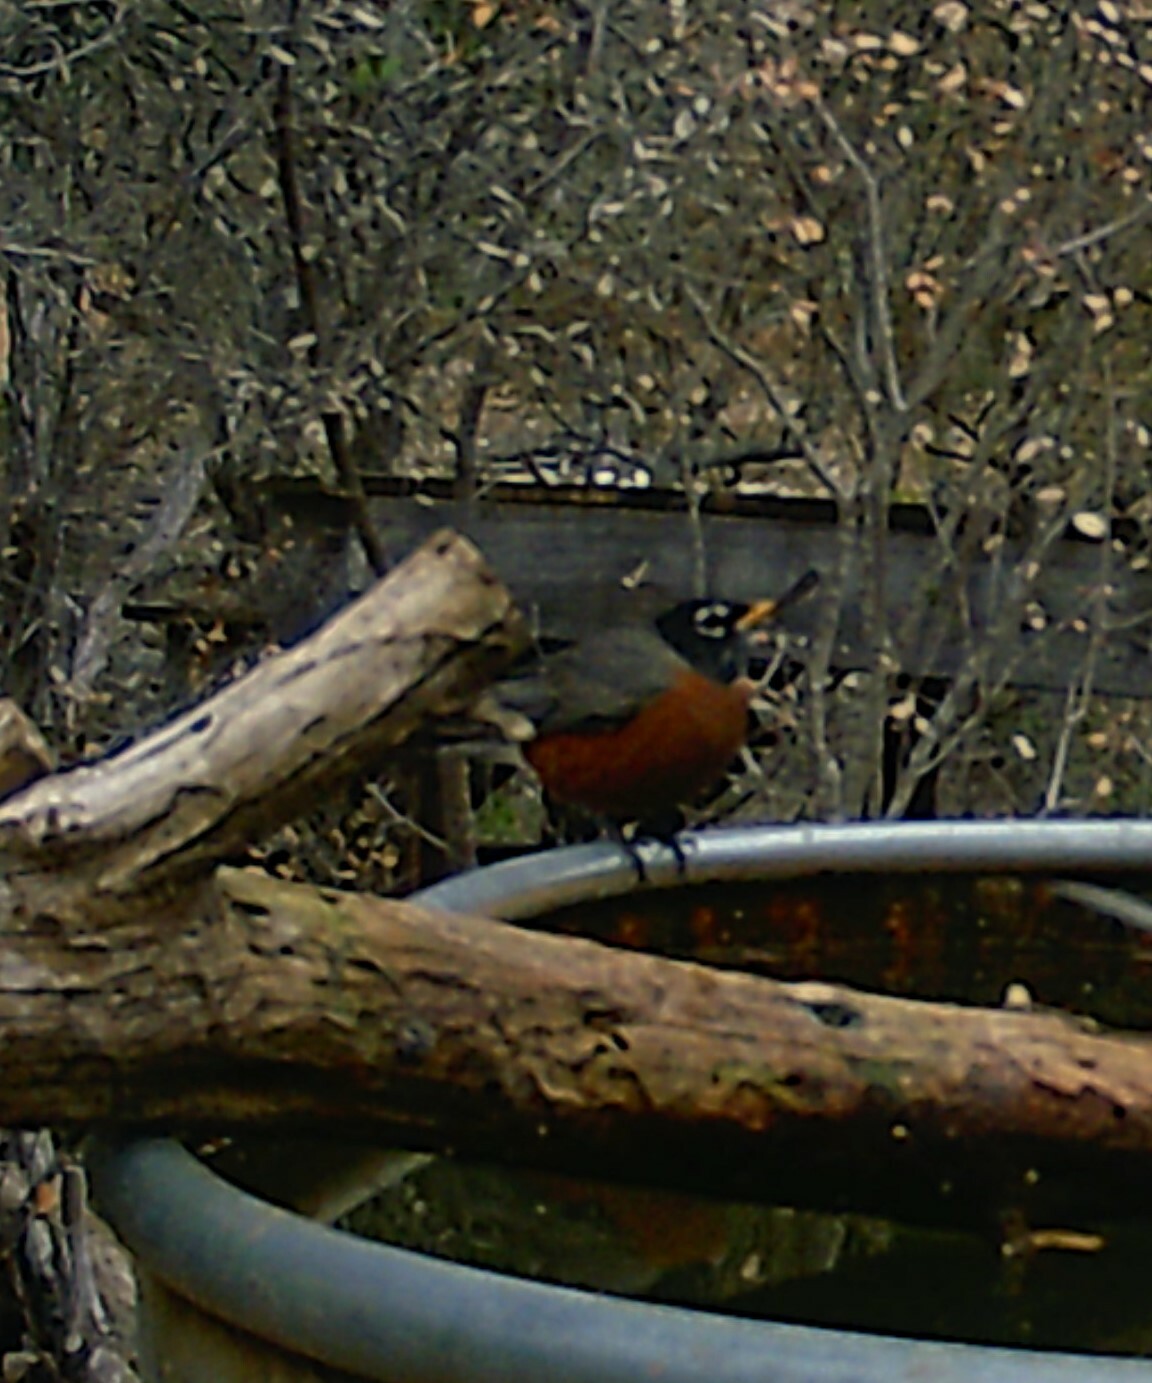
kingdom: Animalia
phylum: Chordata
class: Aves
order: Passeriformes
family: Turdidae
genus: Turdus
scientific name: Turdus migratorius
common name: American robin
